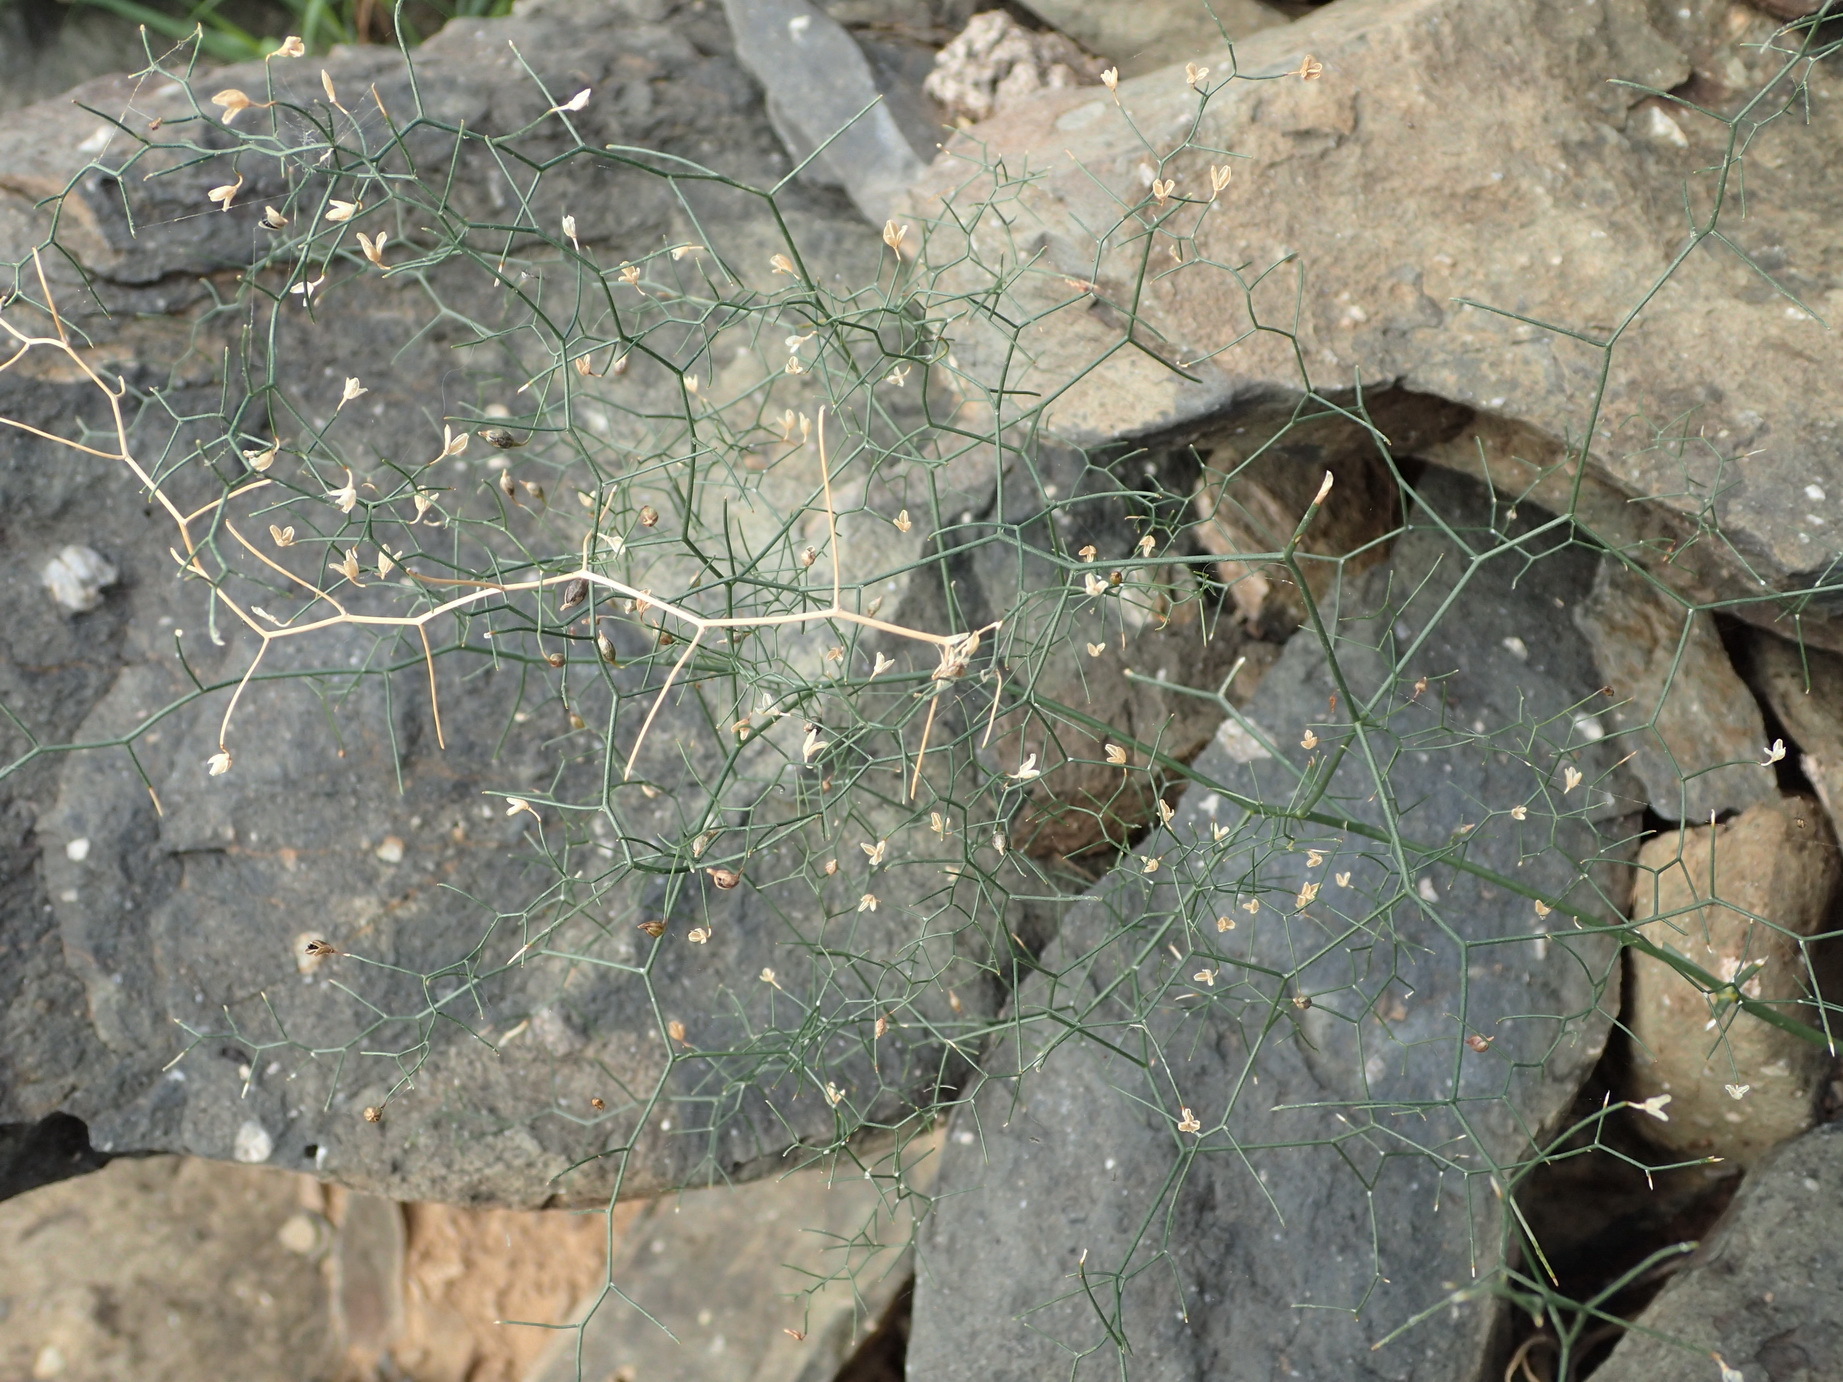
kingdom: Plantae
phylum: Tracheophyta
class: Liliopsida
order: Asparagales
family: Asparagaceae
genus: Drimia
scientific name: Drimia intricata
